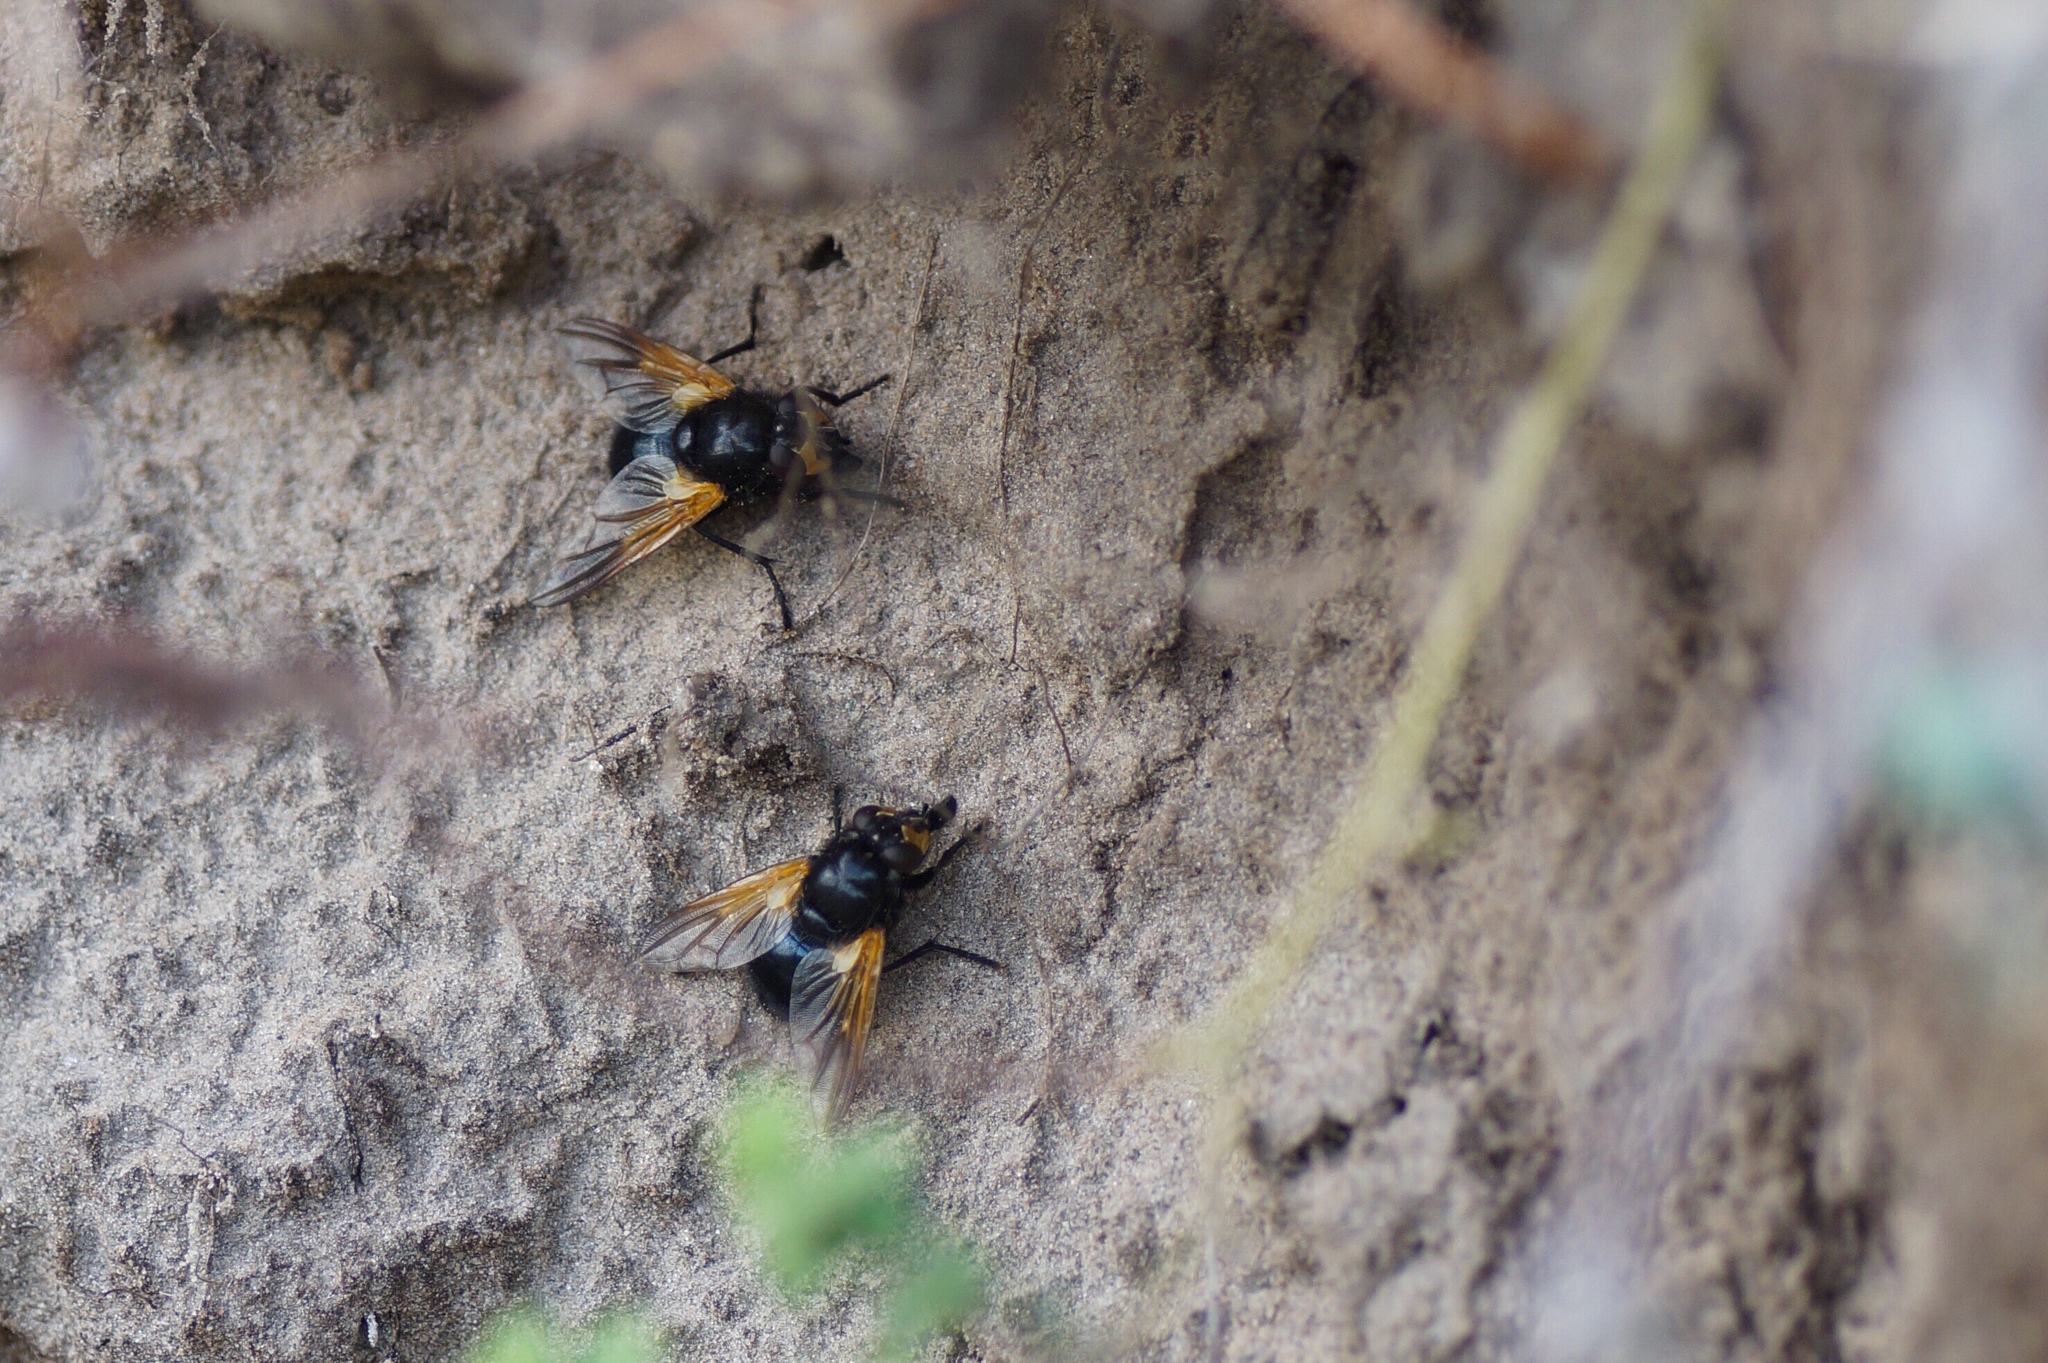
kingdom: Animalia
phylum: Arthropoda
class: Insecta
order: Diptera
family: Muscidae
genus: Mesembrina
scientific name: Mesembrina meridiana
